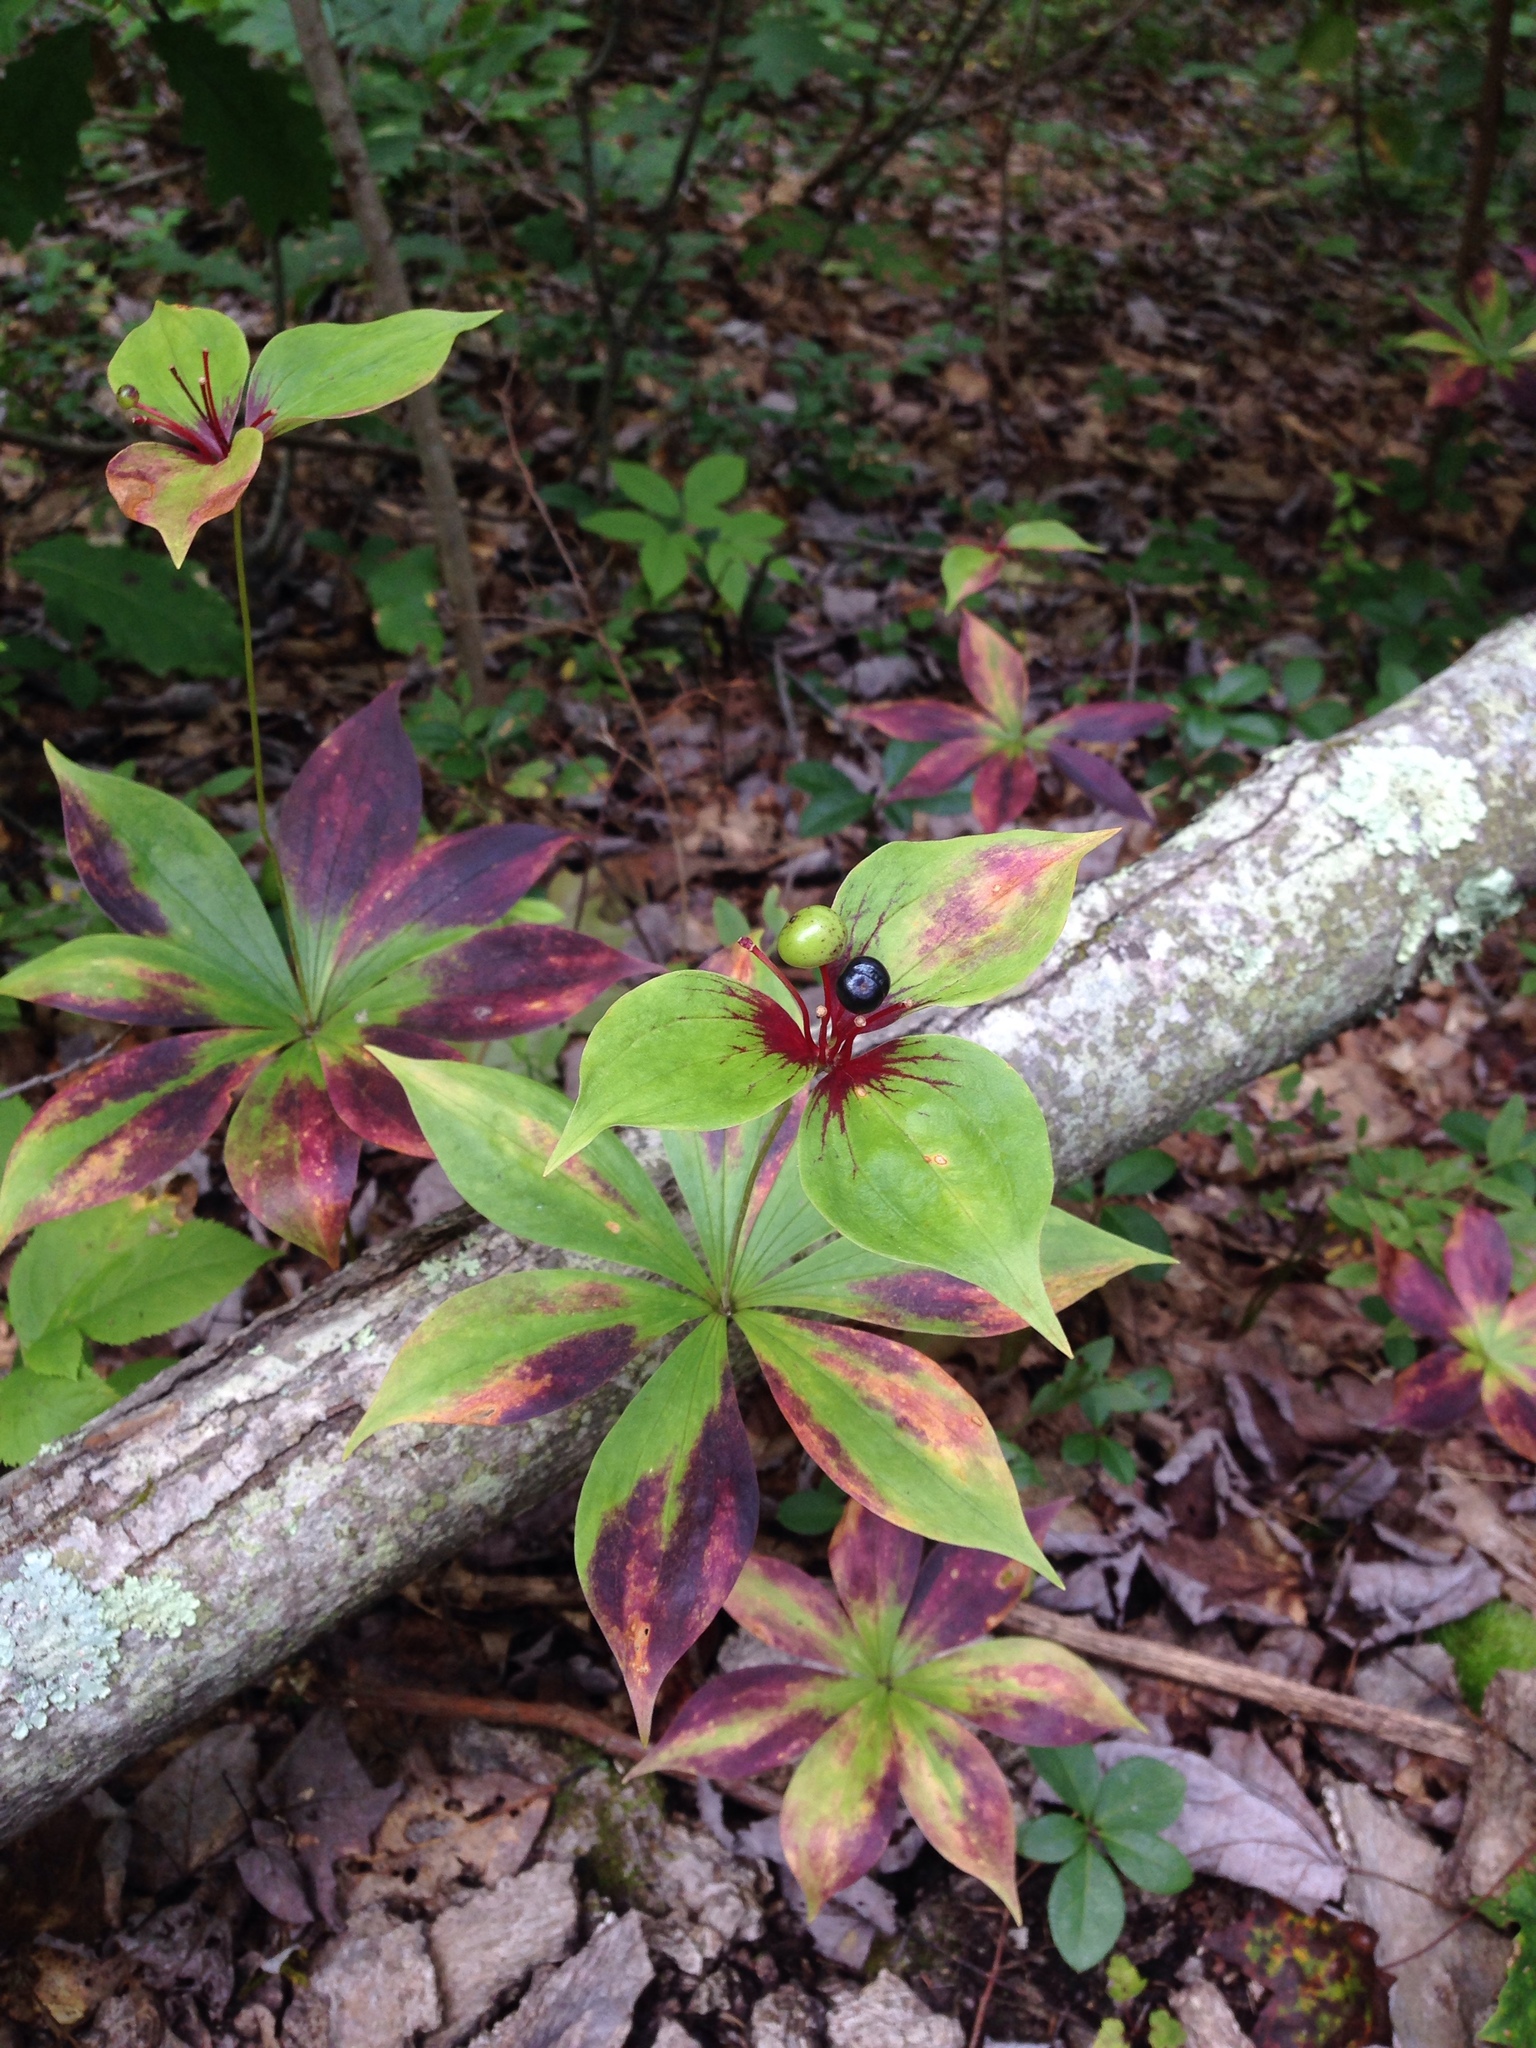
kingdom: Plantae
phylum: Tracheophyta
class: Liliopsida
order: Liliales
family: Liliaceae
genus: Medeola
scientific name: Medeola virginiana
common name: Indian cucumber-root
